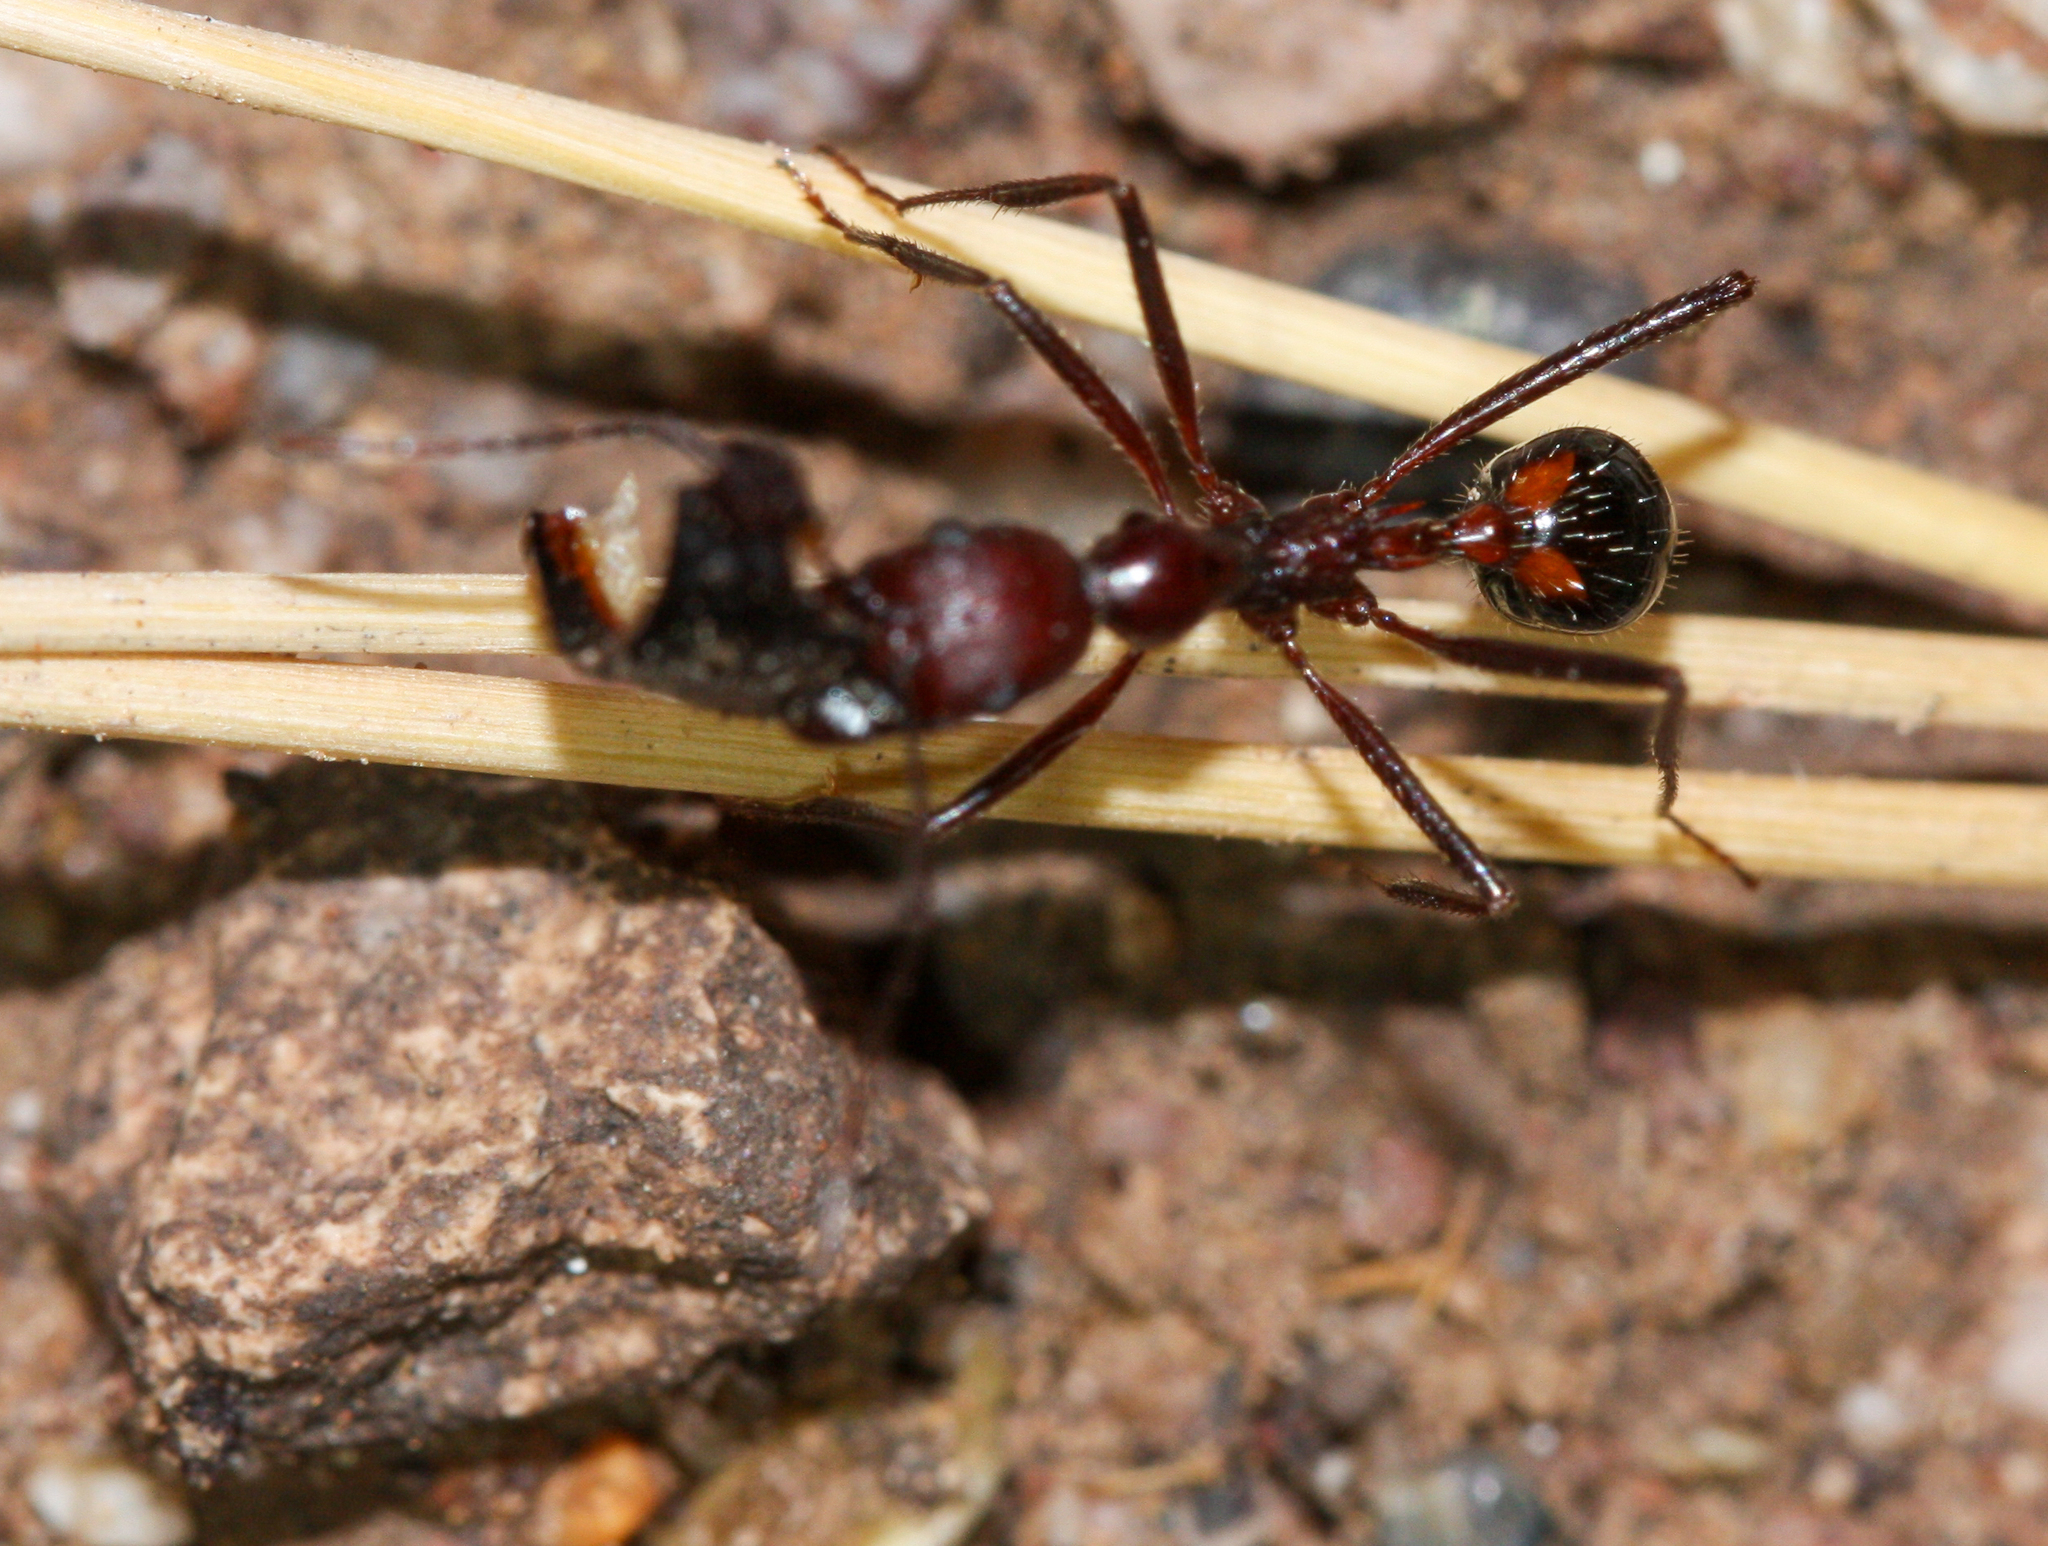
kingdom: Animalia
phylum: Arthropoda
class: Insecta
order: Hymenoptera
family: Formicidae
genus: Novomessor
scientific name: Novomessor cockerelli
